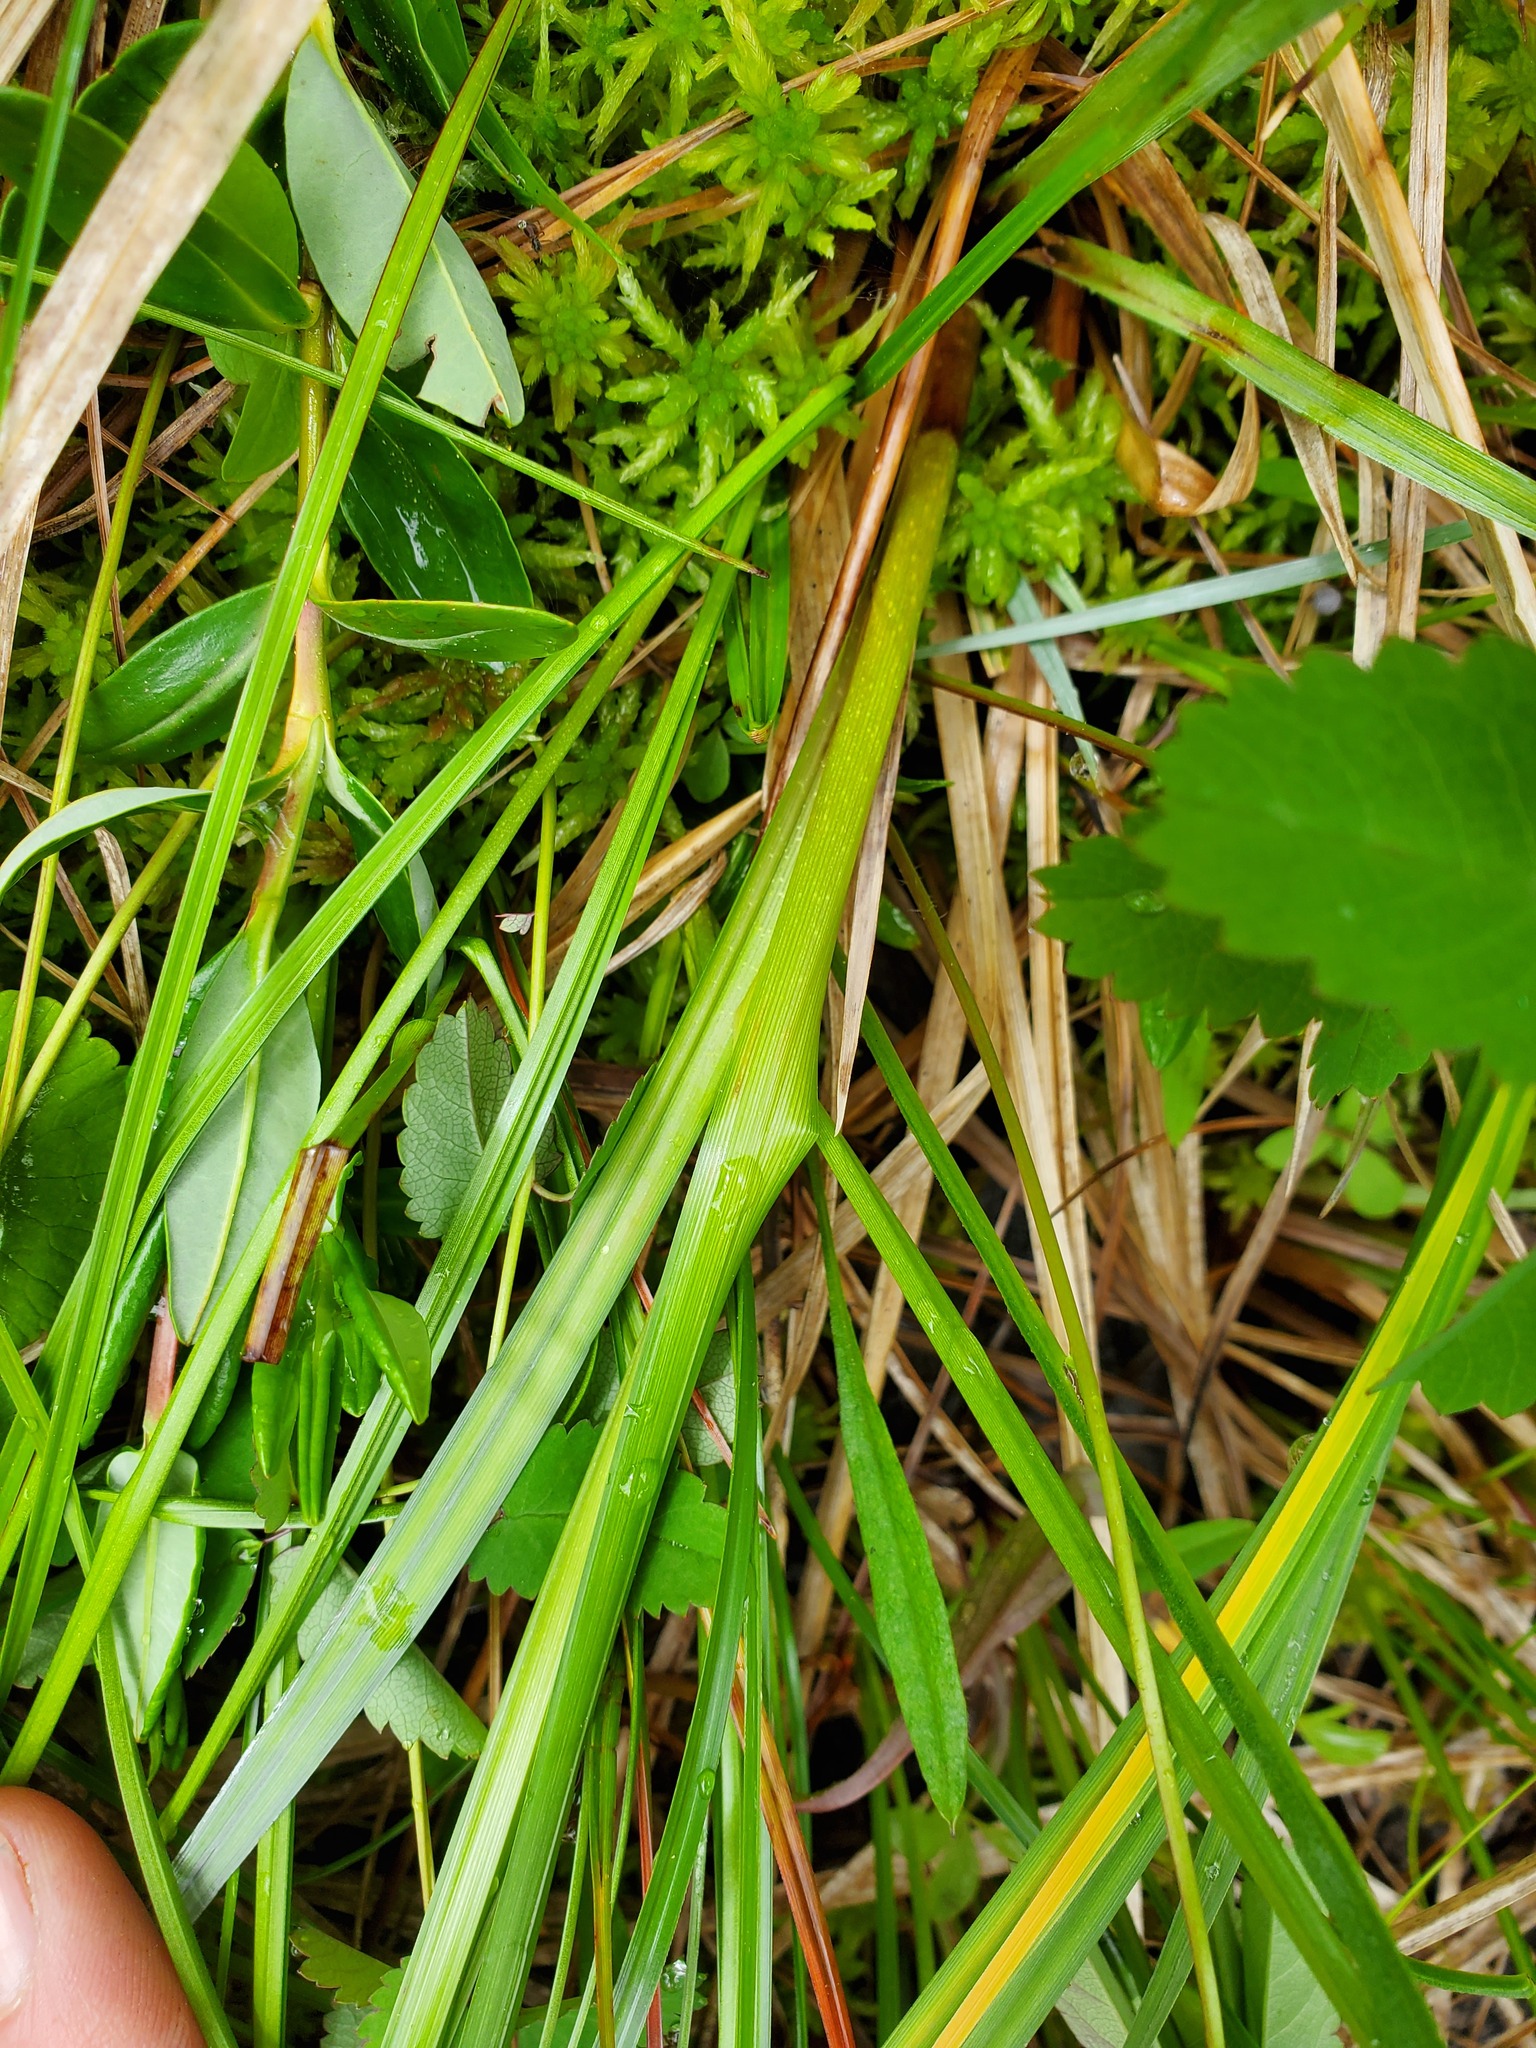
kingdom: Plantae
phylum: Tracheophyta
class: Liliopsida
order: Poales
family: Cyperaceae
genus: Carex
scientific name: Carex aquatilis
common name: Water sedge
